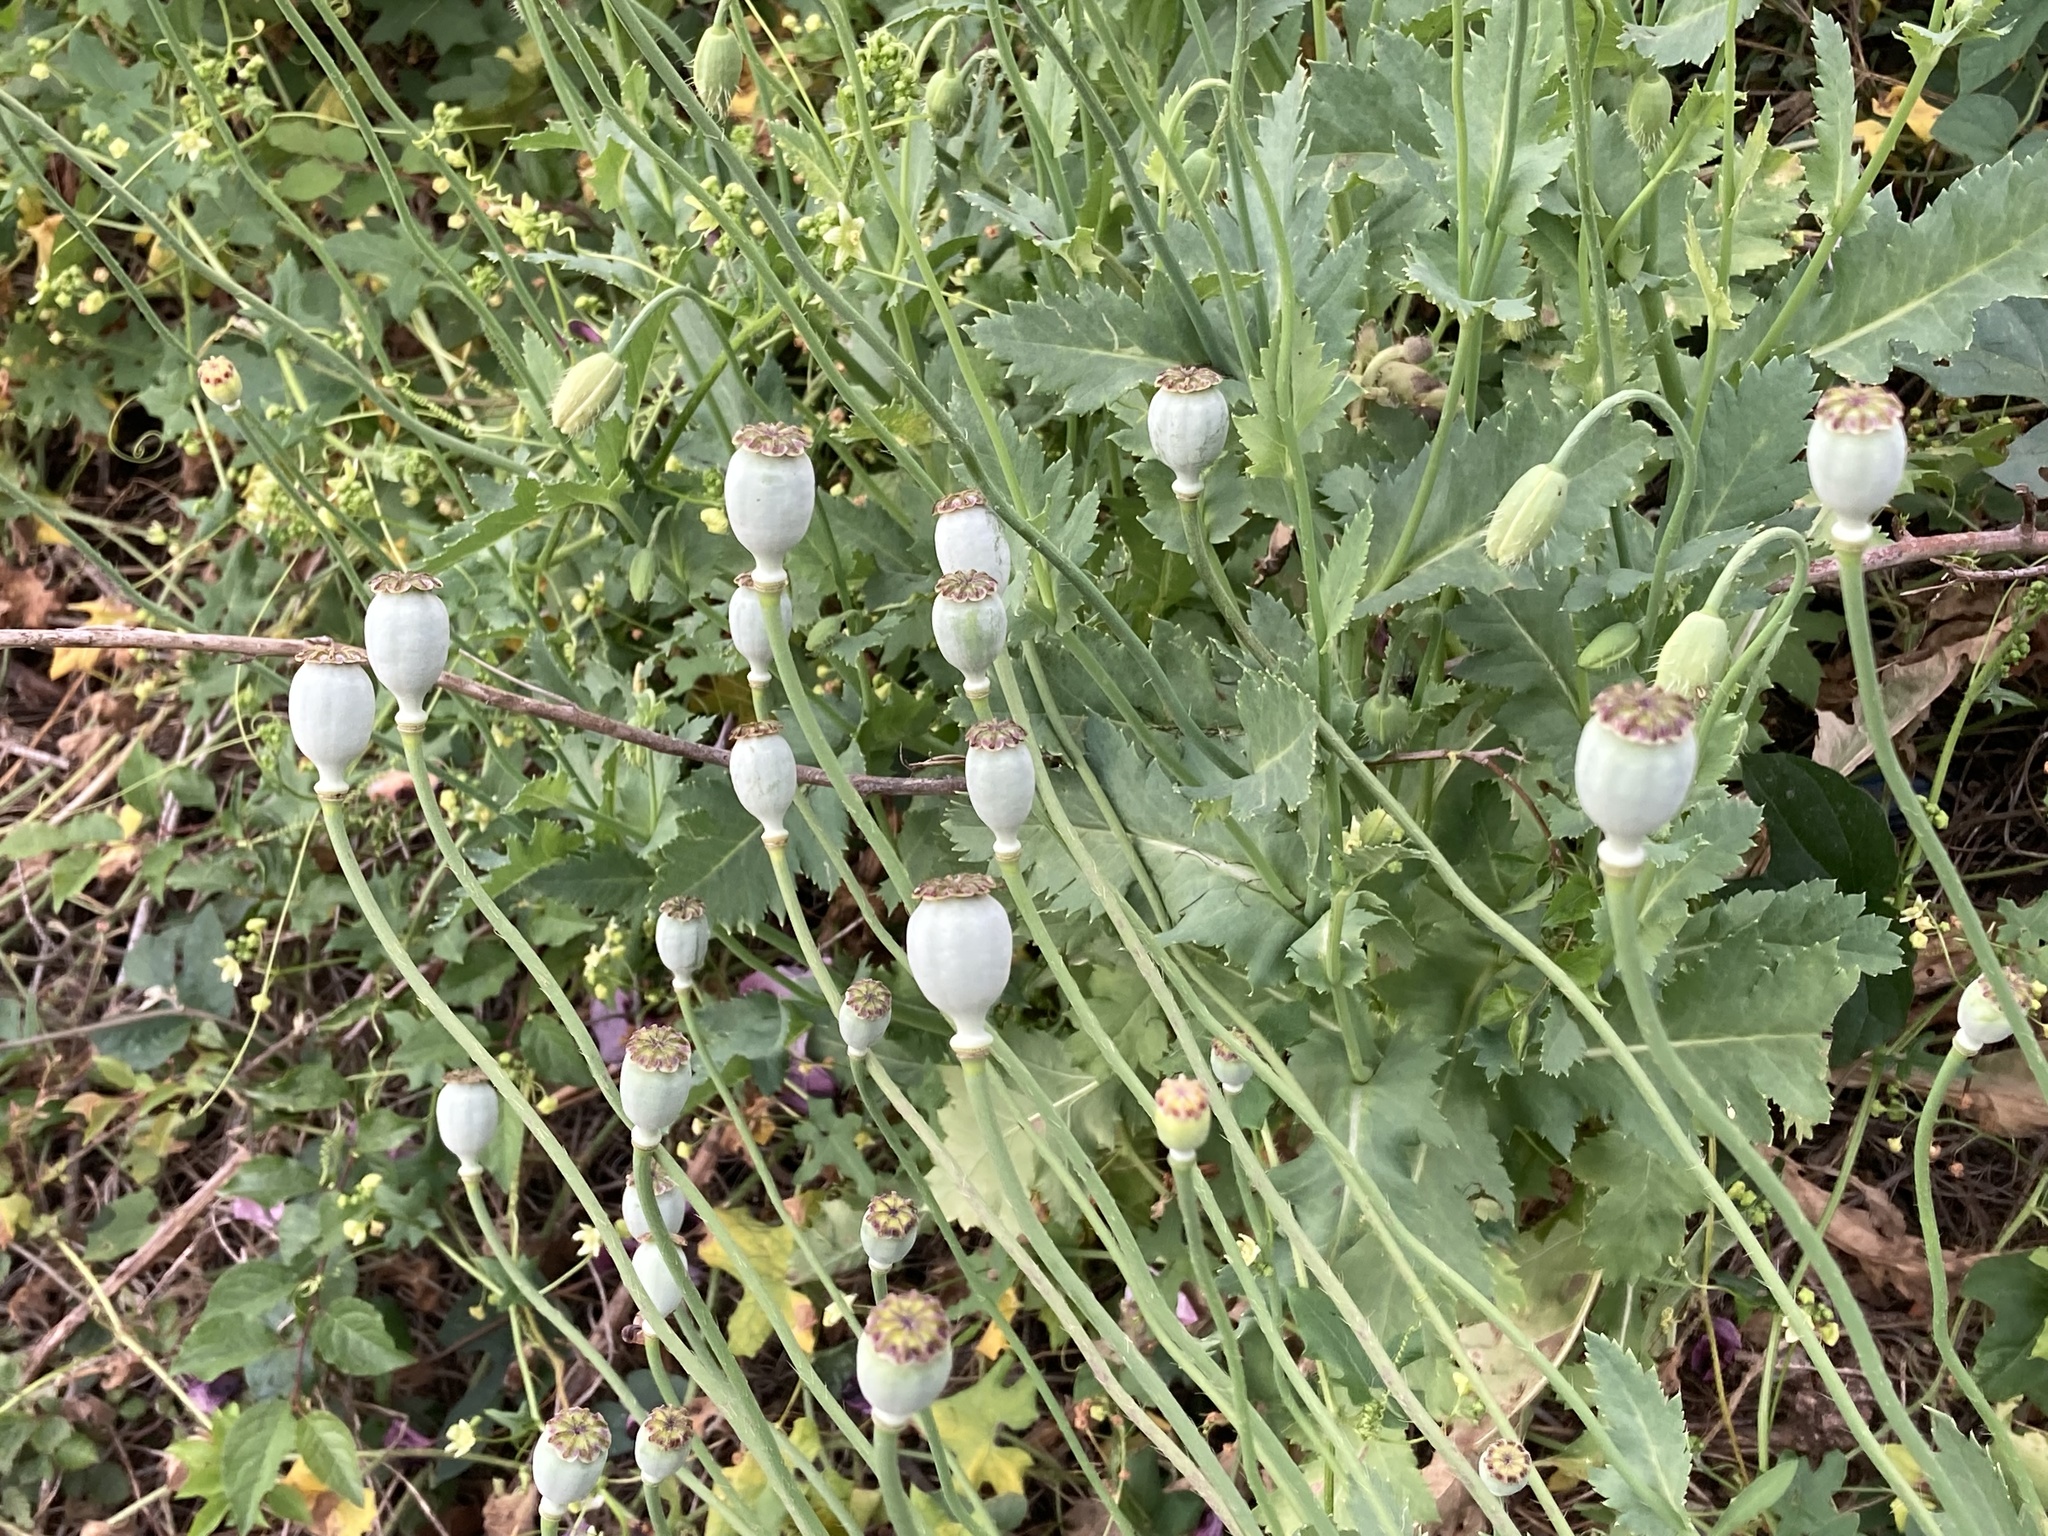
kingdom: Plantae
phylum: Tracheophyta
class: Magnoliopsida
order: Ranunculales
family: Papaveraceae
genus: Papaver
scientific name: Papaver somniferum
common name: Opium poppy
